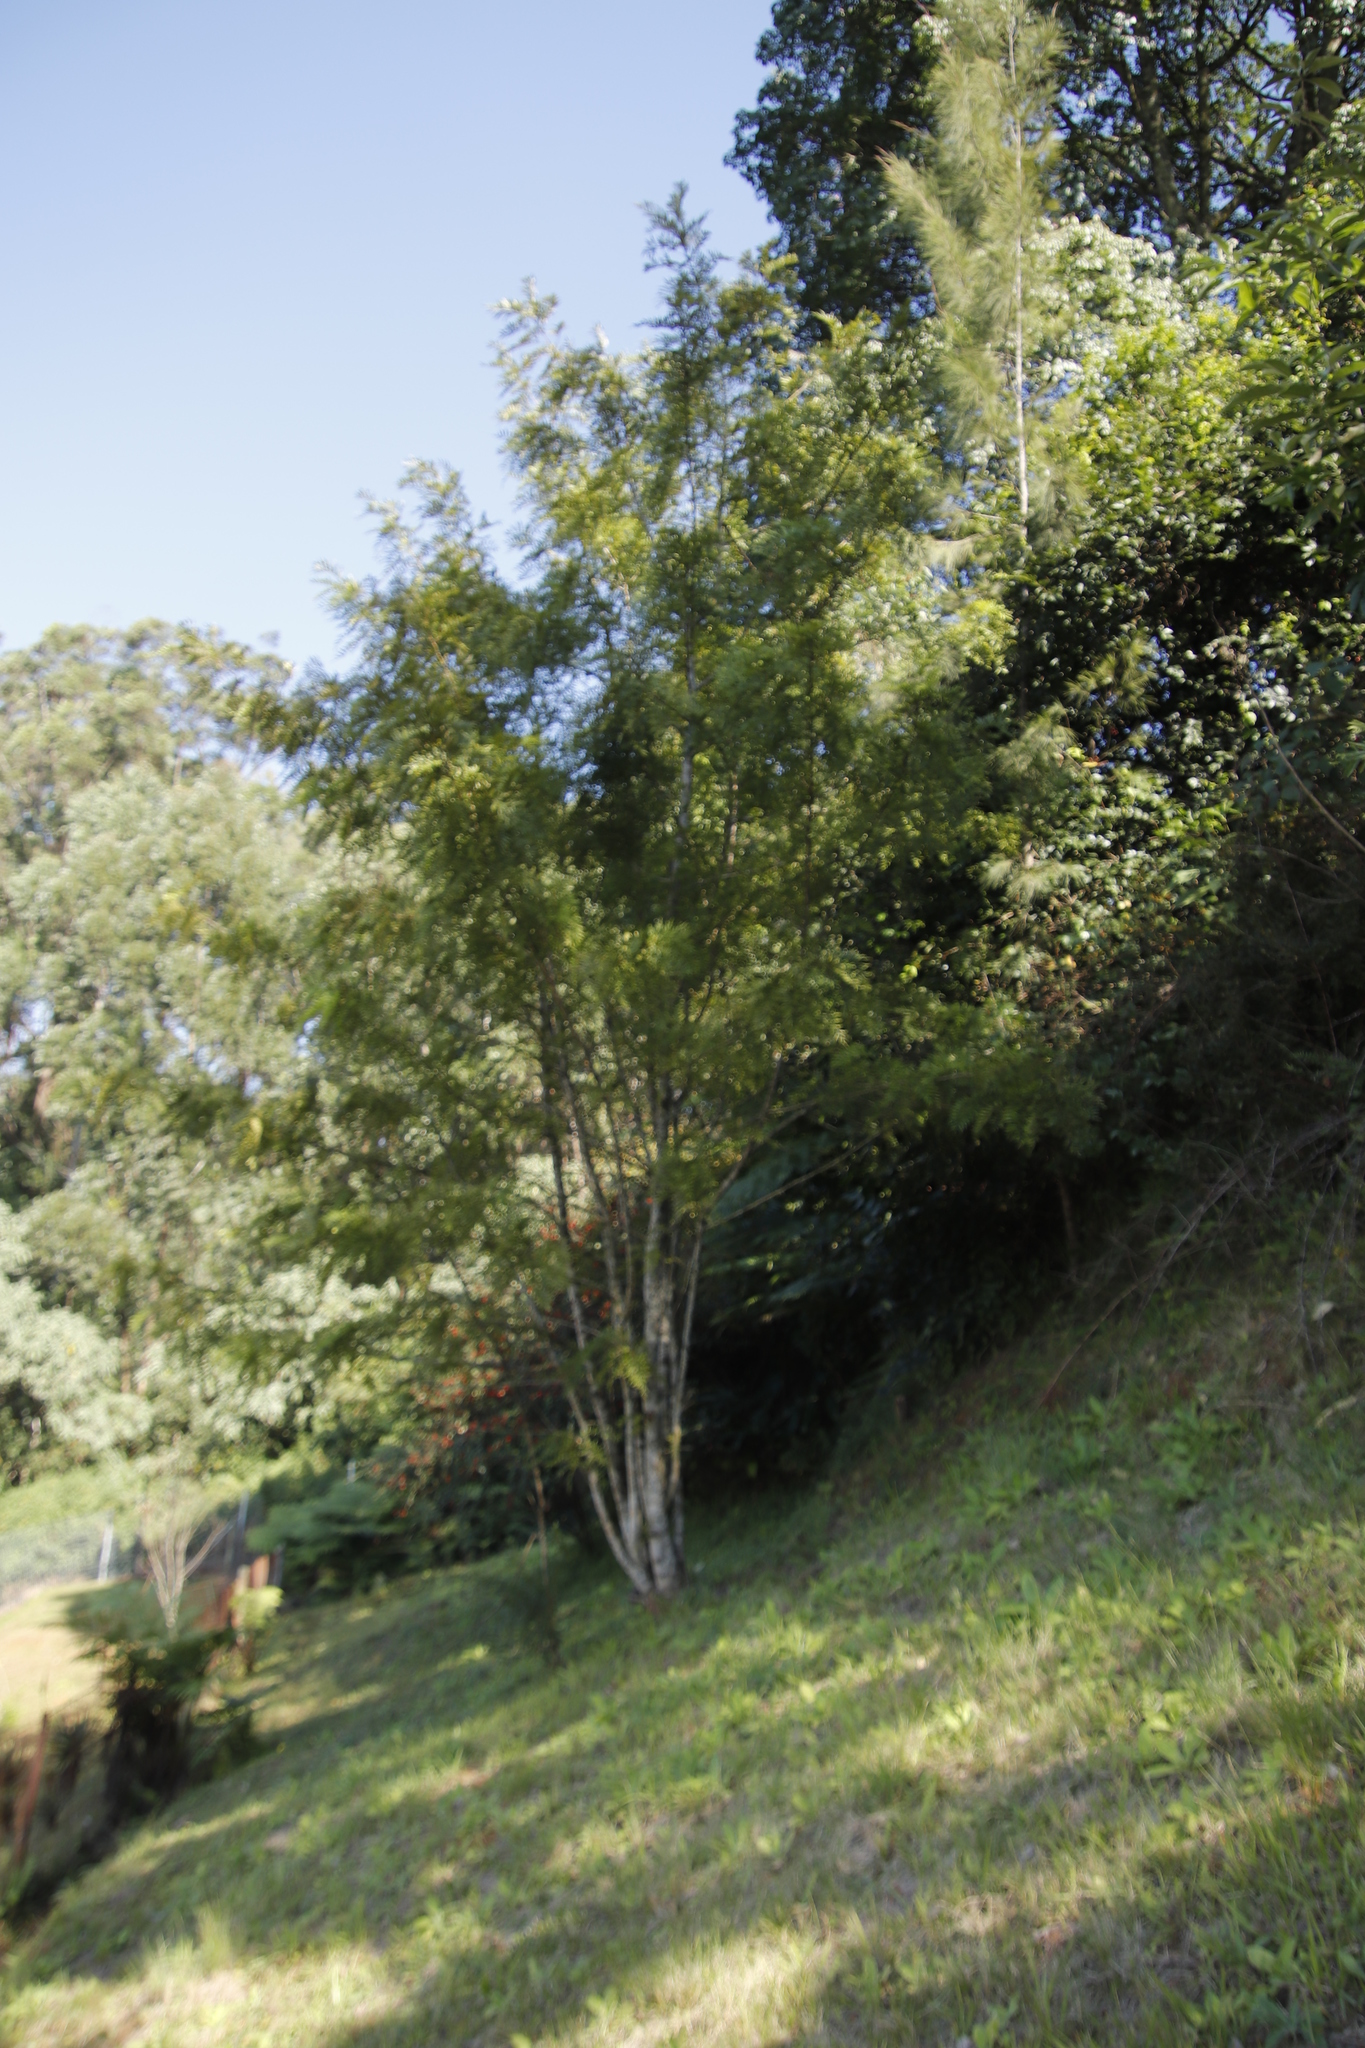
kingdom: Plantae
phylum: Tracheophyta
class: Magnoliopsida
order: Proteales
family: Proteaceae
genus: Grevillea
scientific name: Grevillea robusta
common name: Silkoak
